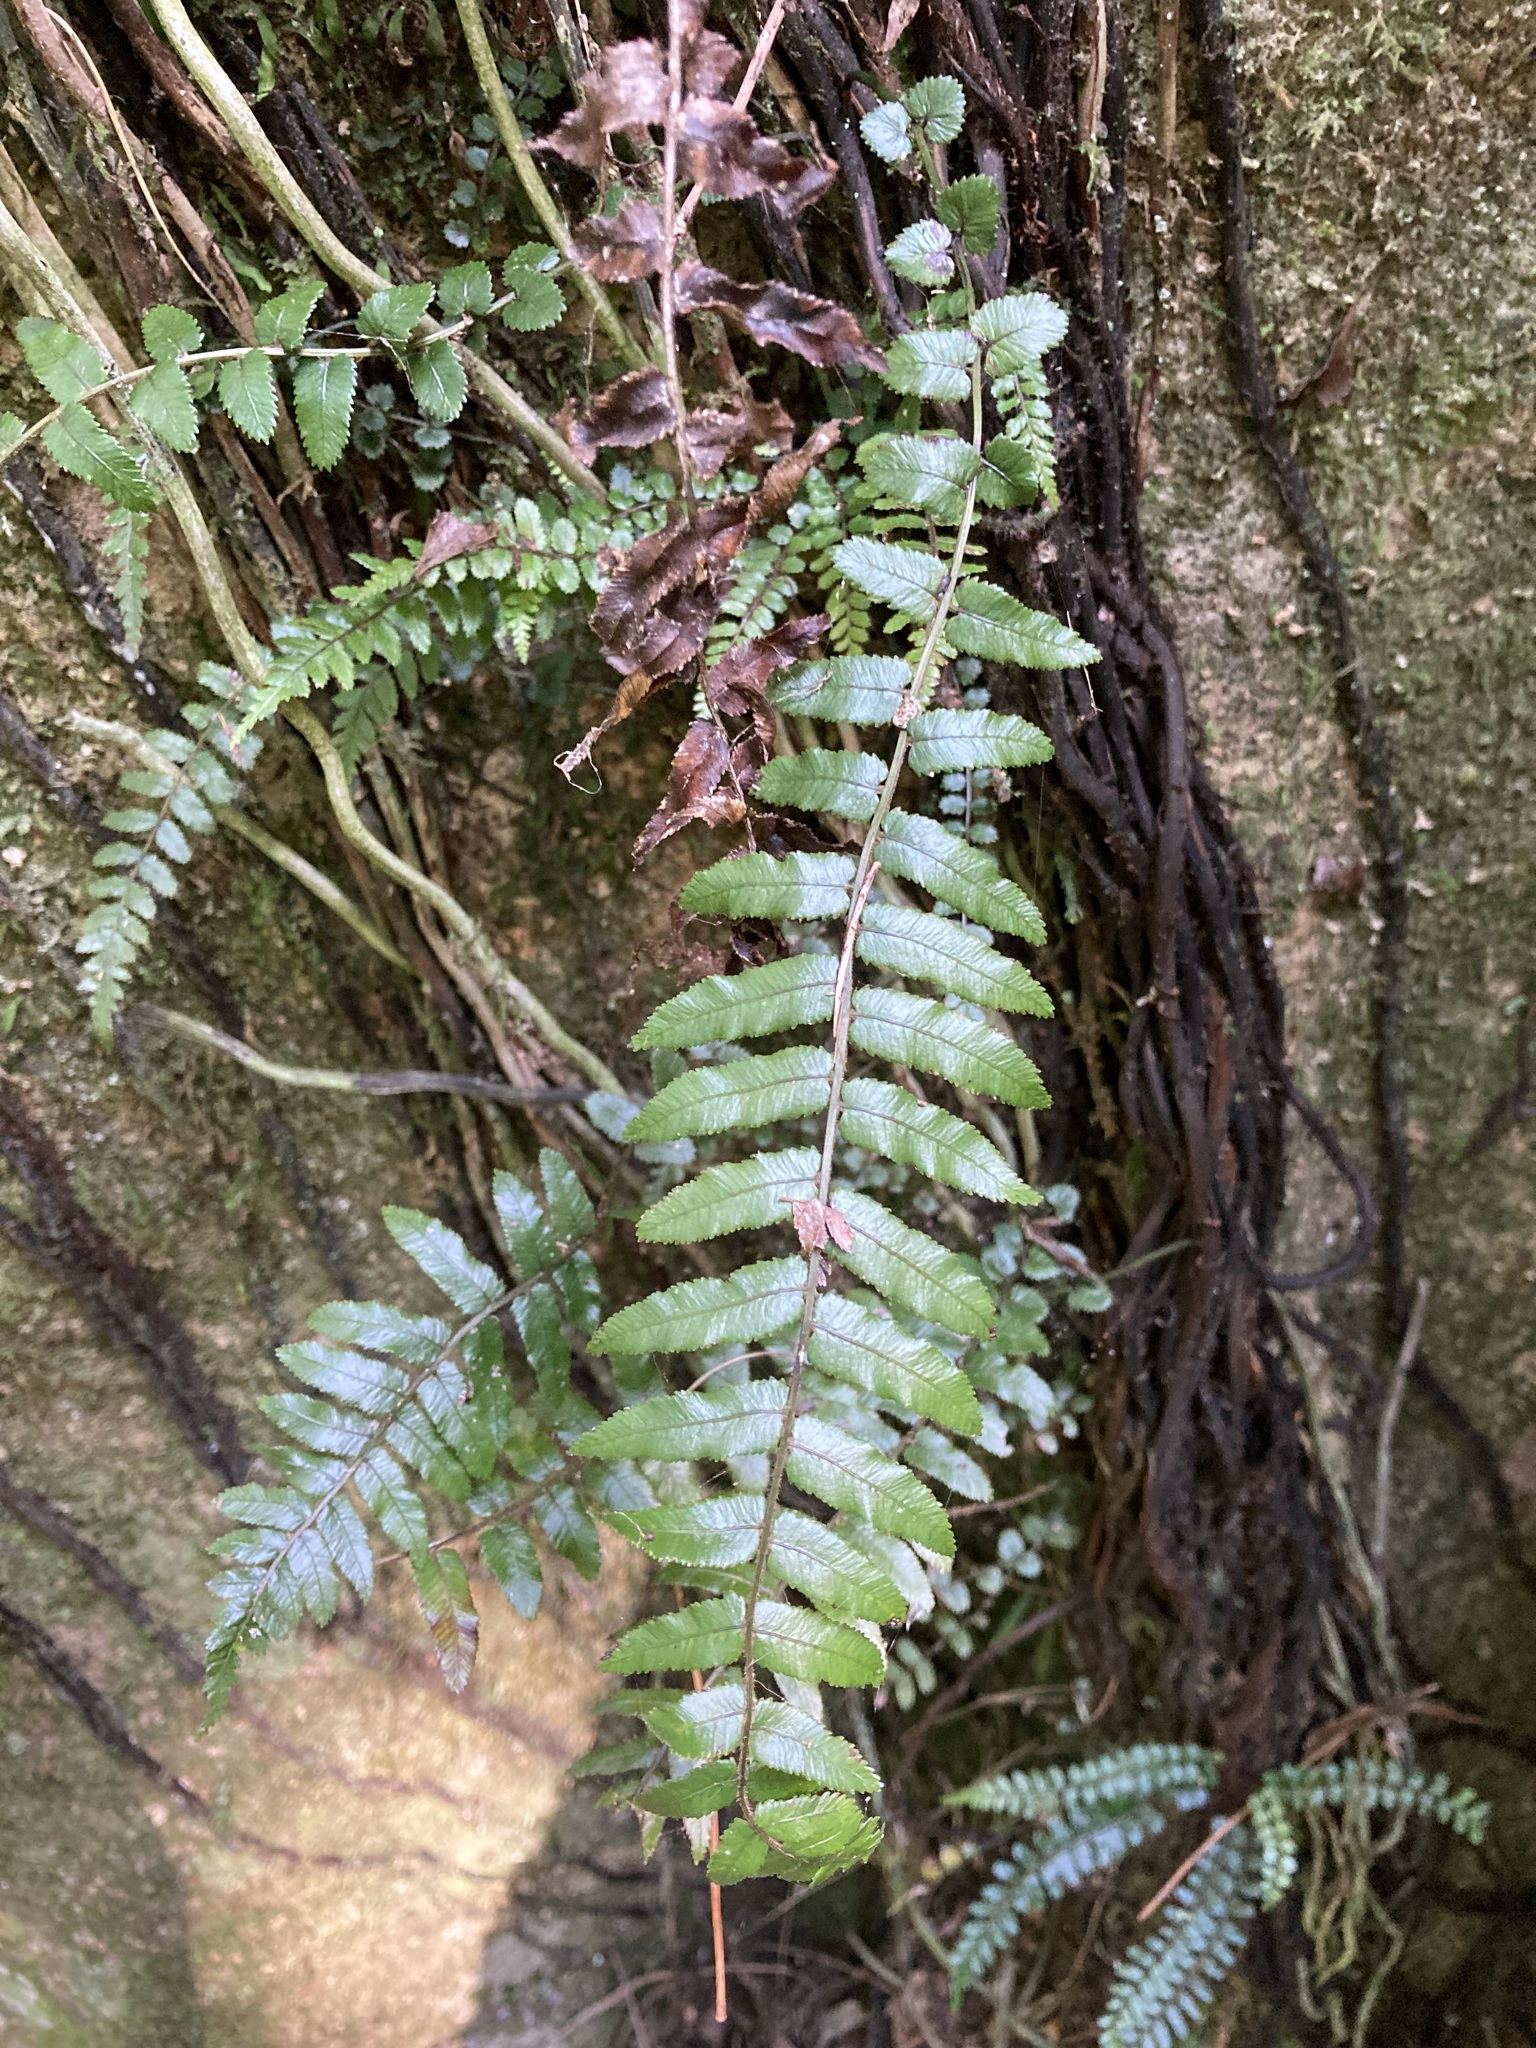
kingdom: Plantae
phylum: Tracheophyta
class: Polypodiopsida
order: Polypodiales
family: Blechnaceae
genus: Icarus
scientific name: Icarus filiformis
